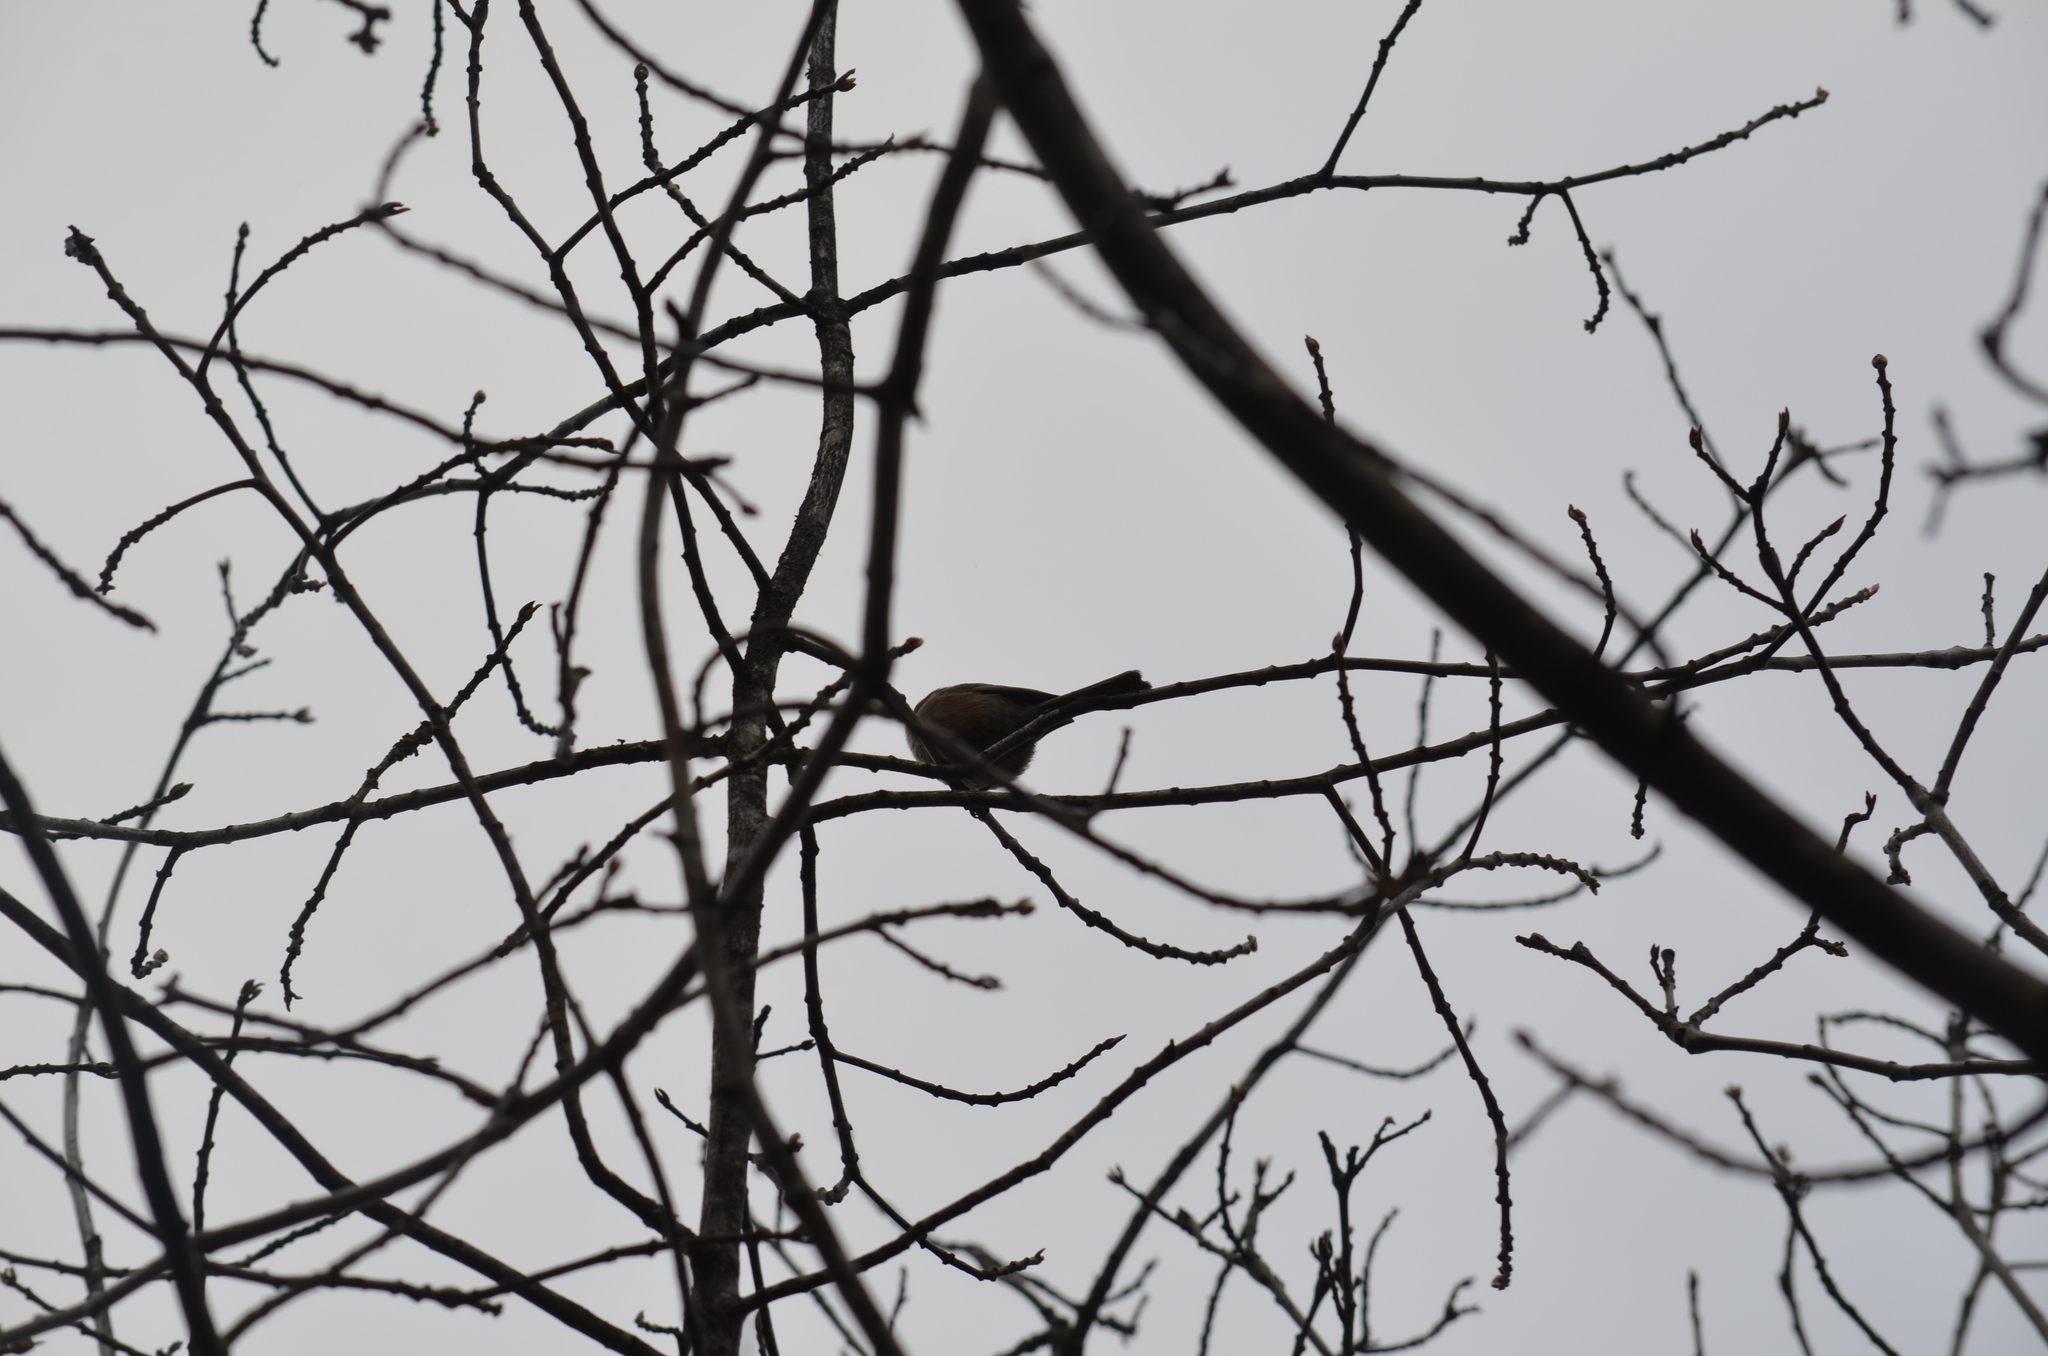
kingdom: Animalia
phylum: Chordata
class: Aves
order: Passeriformes
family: Paridae
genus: Poecile
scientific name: Poecile rufescens
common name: Chestnut-backed chickadee
